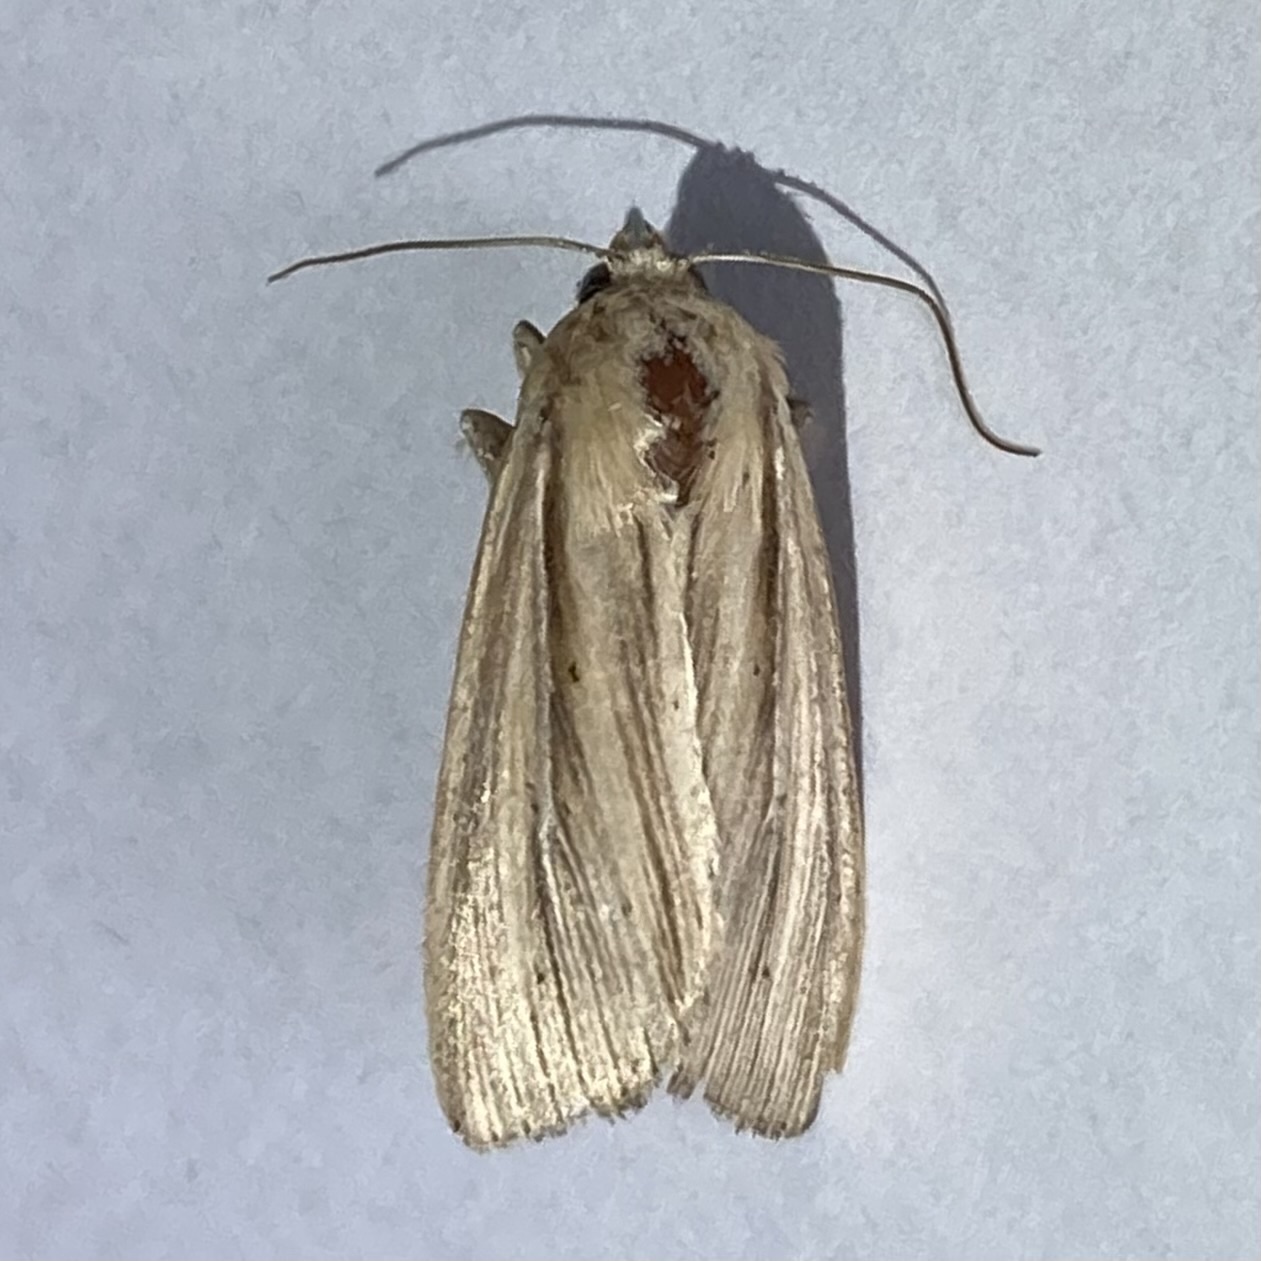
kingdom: Animalia
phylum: Arthropoda
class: Insecta
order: Lepidoptera
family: Noctuidae
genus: Leucania
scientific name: Leucania commoides
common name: Two-lined wainscot
